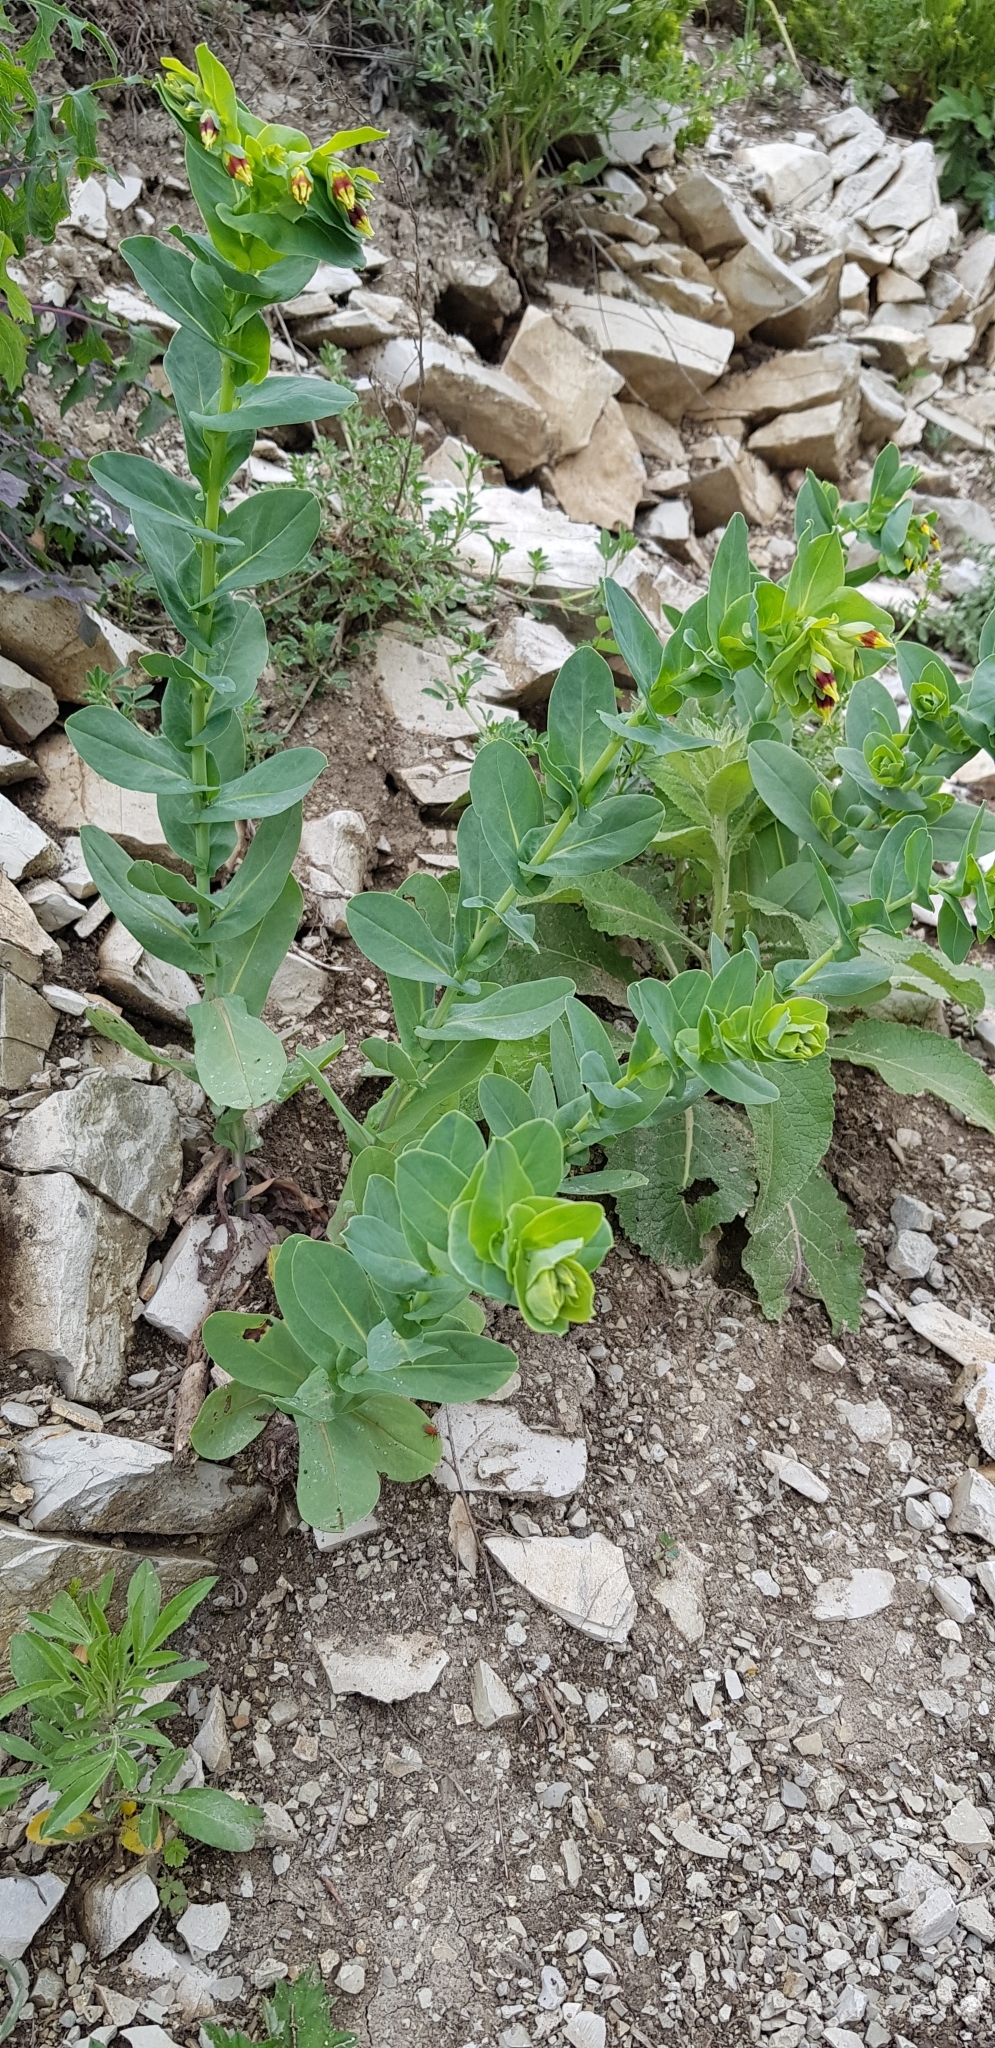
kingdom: Plantae
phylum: Tracheophyta
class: Magnoliopsida
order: Boraginales
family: Boraginaceae
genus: Cerinthe
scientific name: Cerinthe minor
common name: Lesser honeywort
